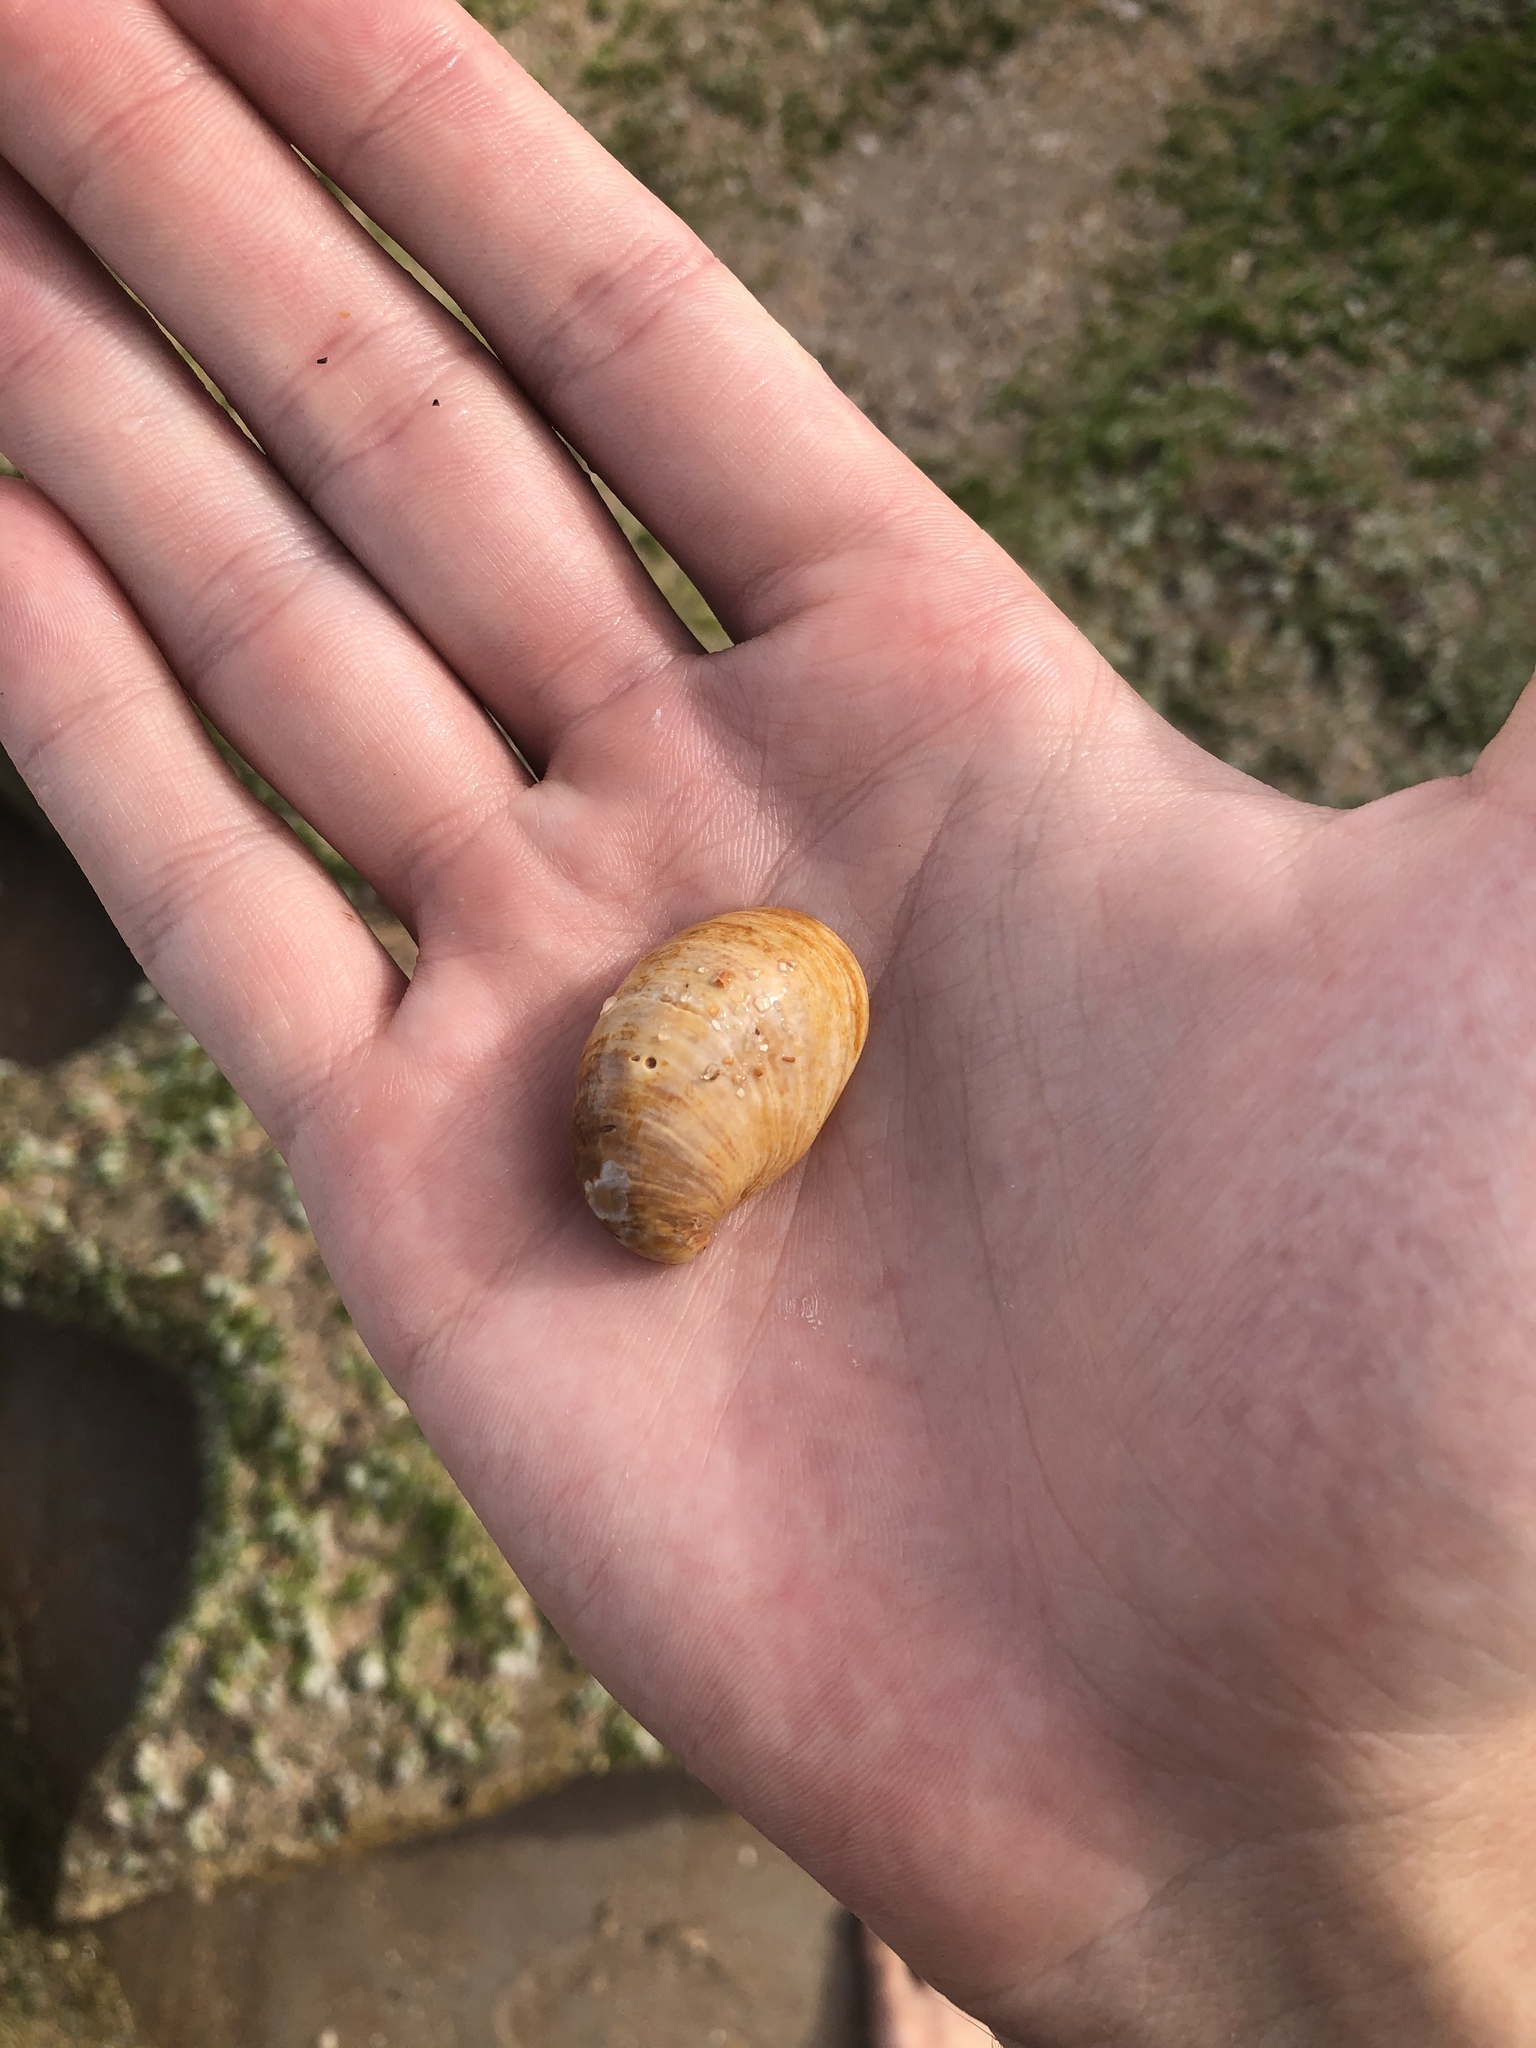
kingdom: Animalia
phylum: Mollusca
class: Gastropoda
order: Littorinimorpha
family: Calyptraeidae
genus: Crepidula
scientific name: Crepidula fornicata
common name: Slipper limpet
